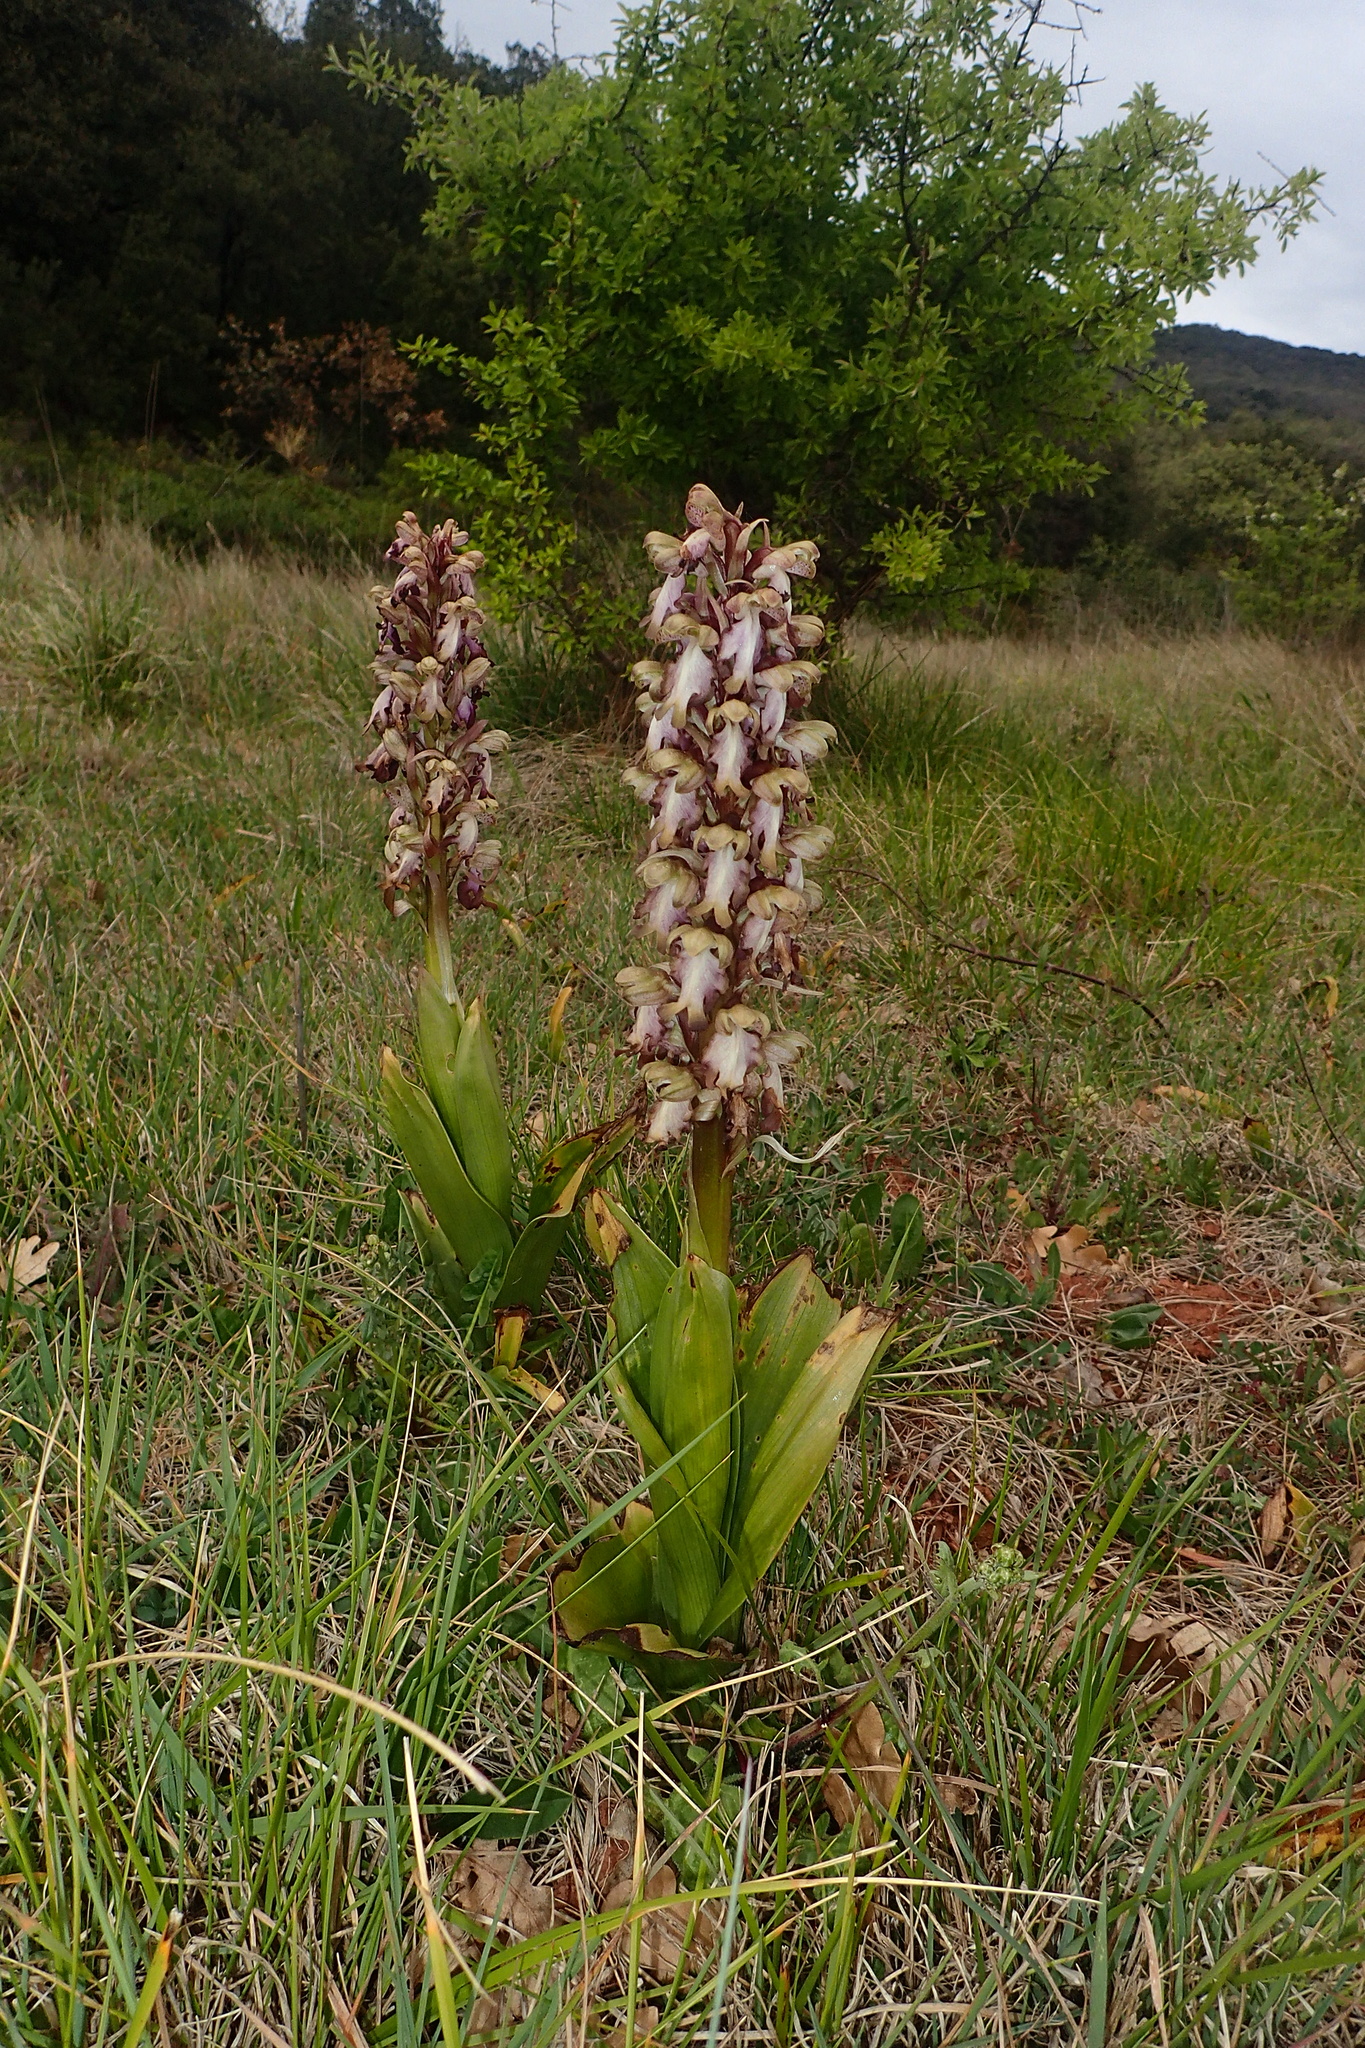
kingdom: Plantae
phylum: Tracheophyta
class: Liliopsida
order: Asparagales
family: Orchidaceae
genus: Himantoglossum
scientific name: Himantoglossum robertianum
